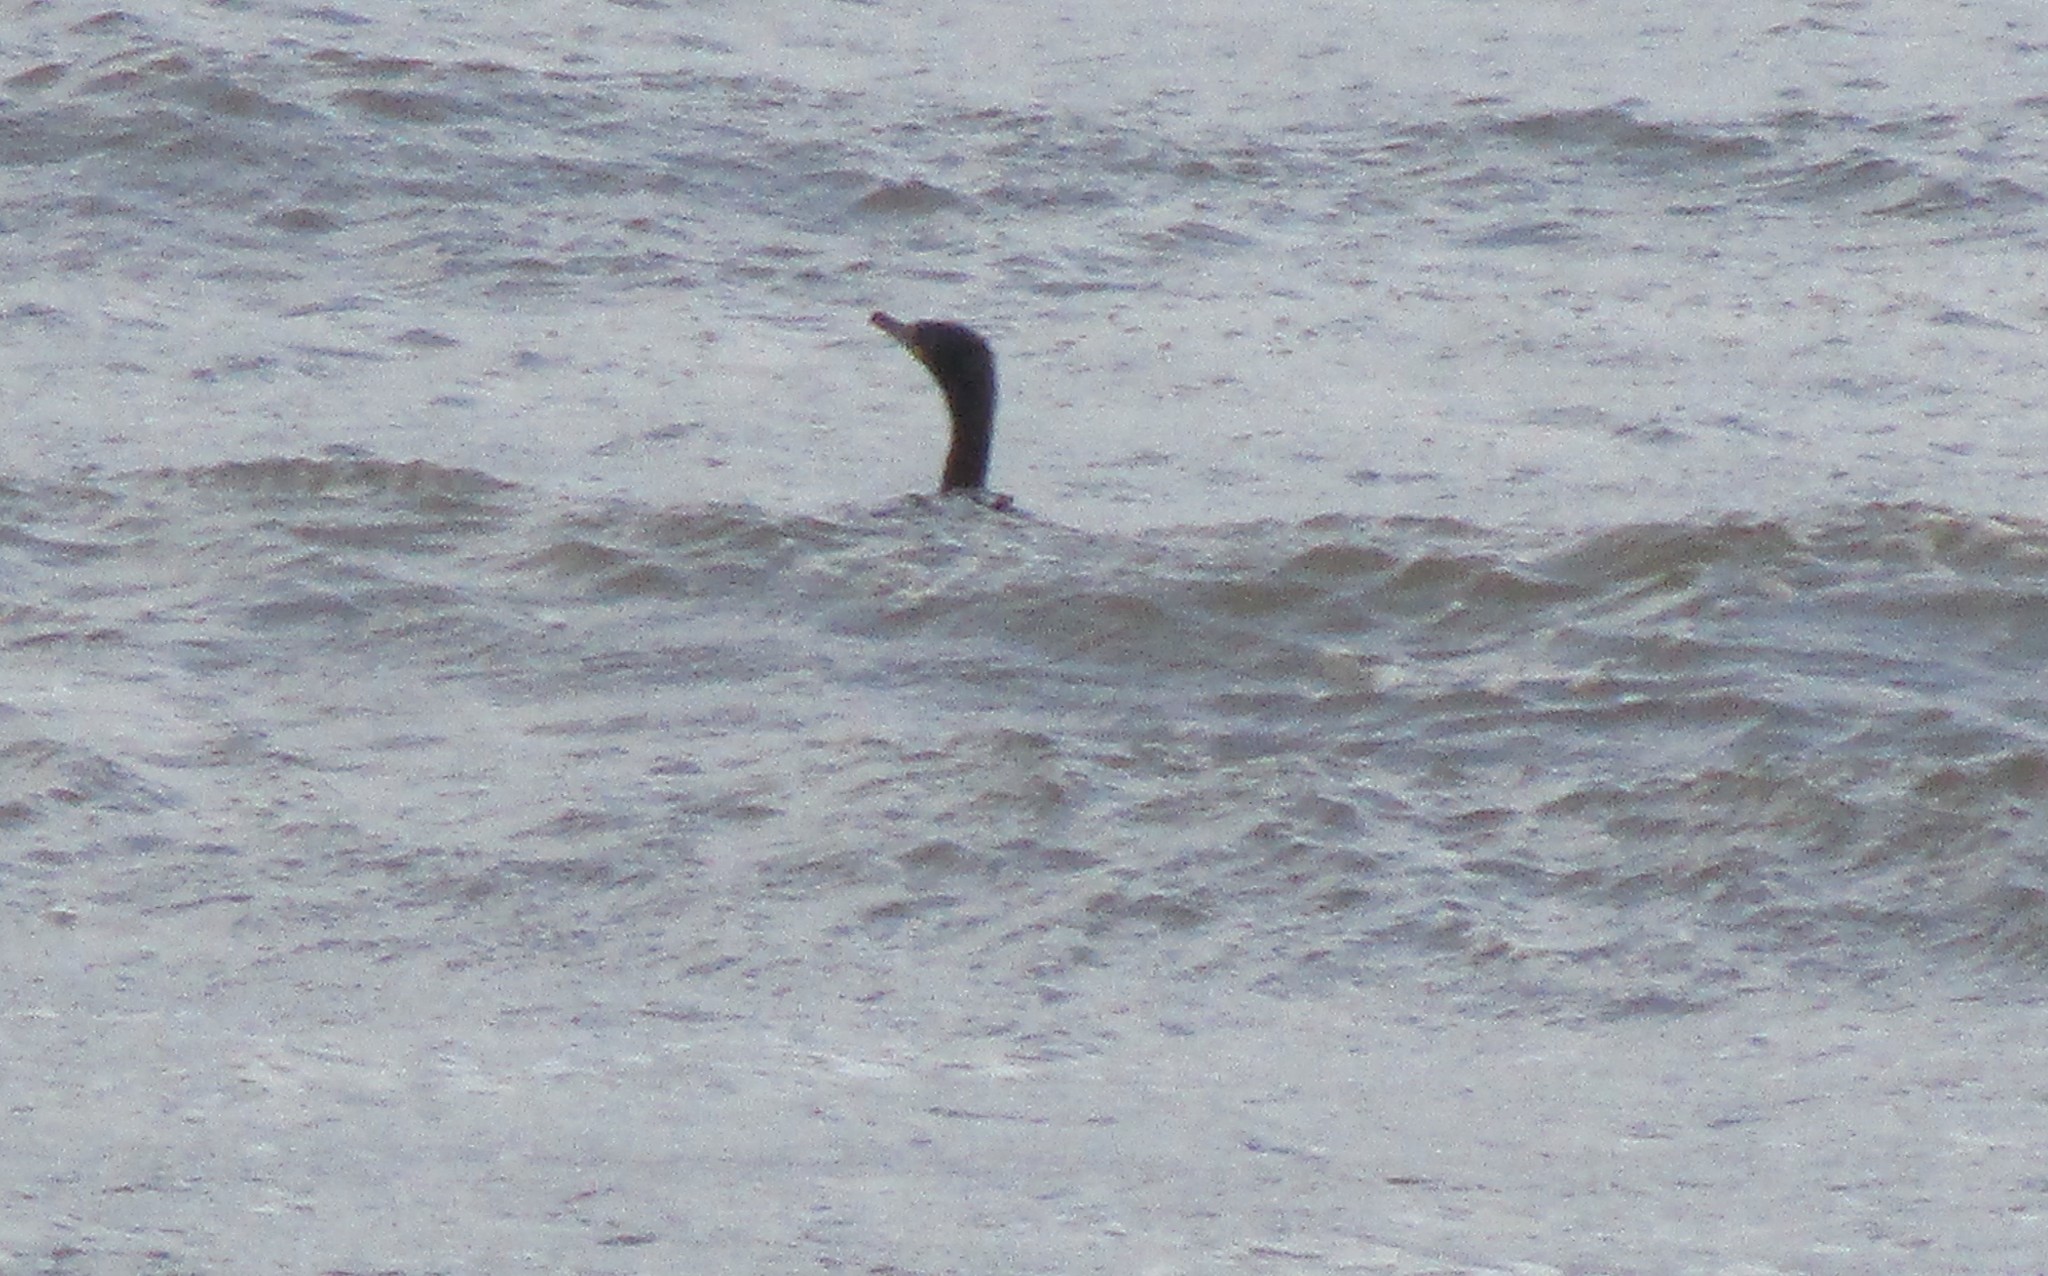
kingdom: Animalia
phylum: Chordata
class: Aves
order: Suliformes
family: Phalacrocoracidae
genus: Phalacrocorax
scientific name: Phalacrocorax auritus
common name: Double-crested cormorant
